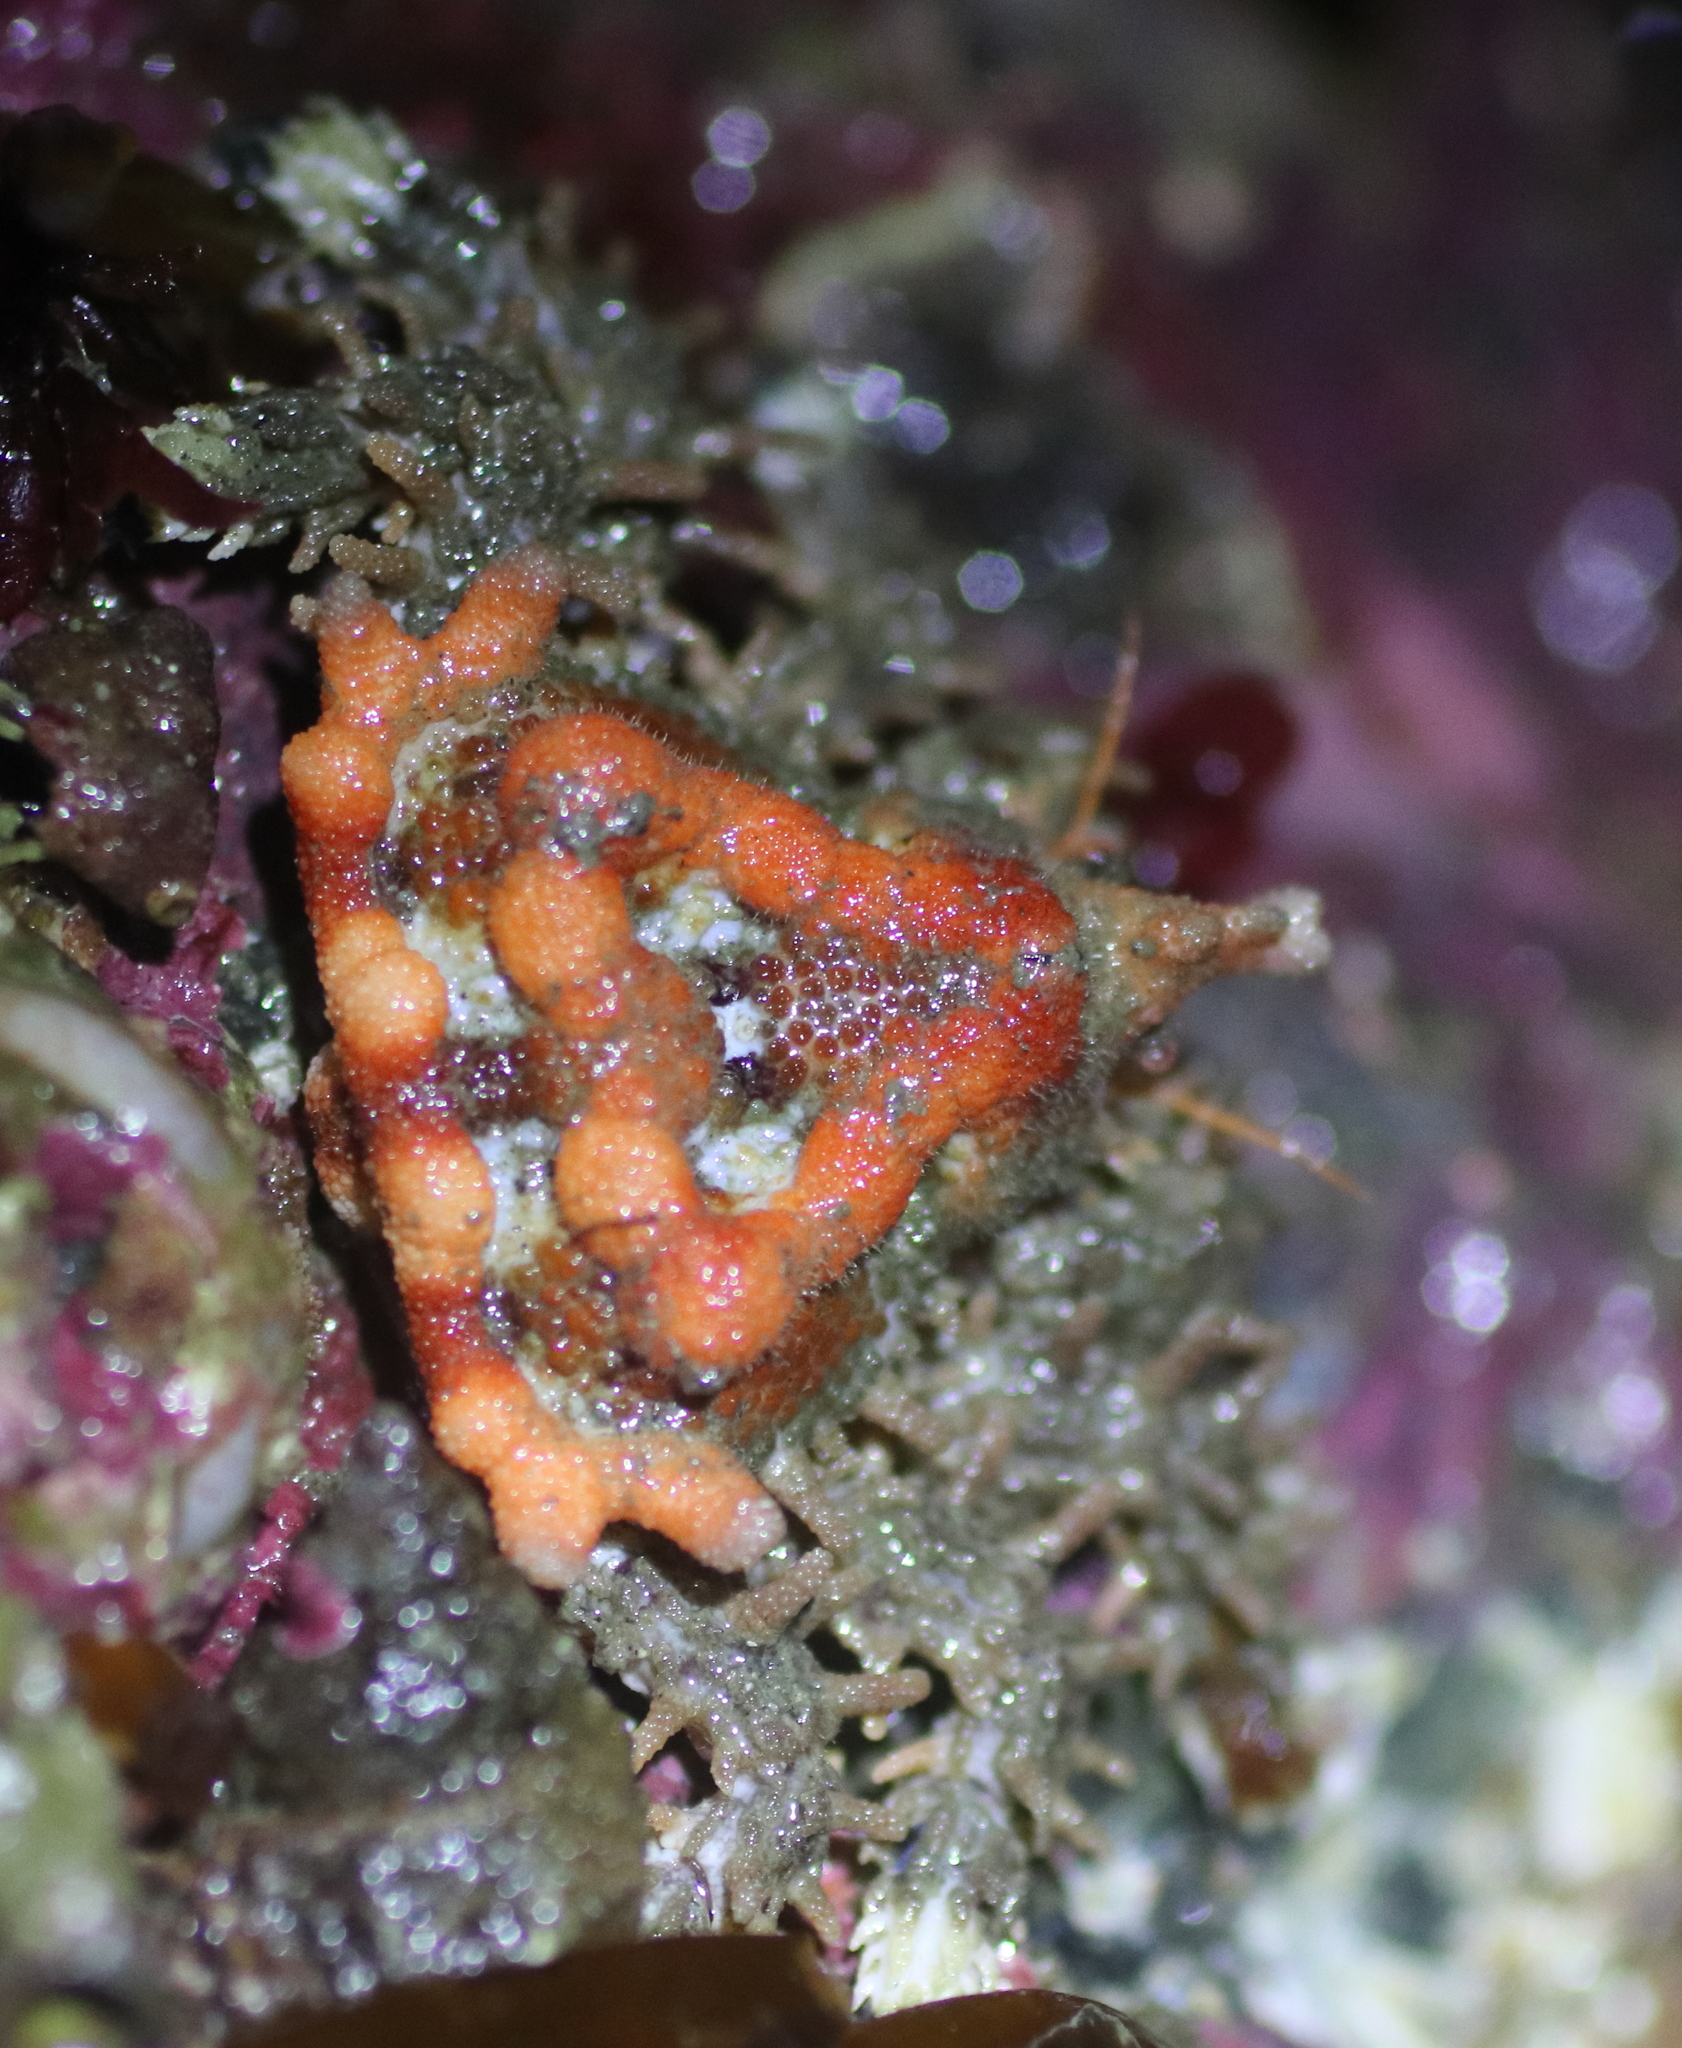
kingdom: Animalia
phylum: Arthropoda
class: Malacostraca
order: Decapoda
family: Lithodidae
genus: Phyllolithodes
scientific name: Phyllolithodes papillosus
